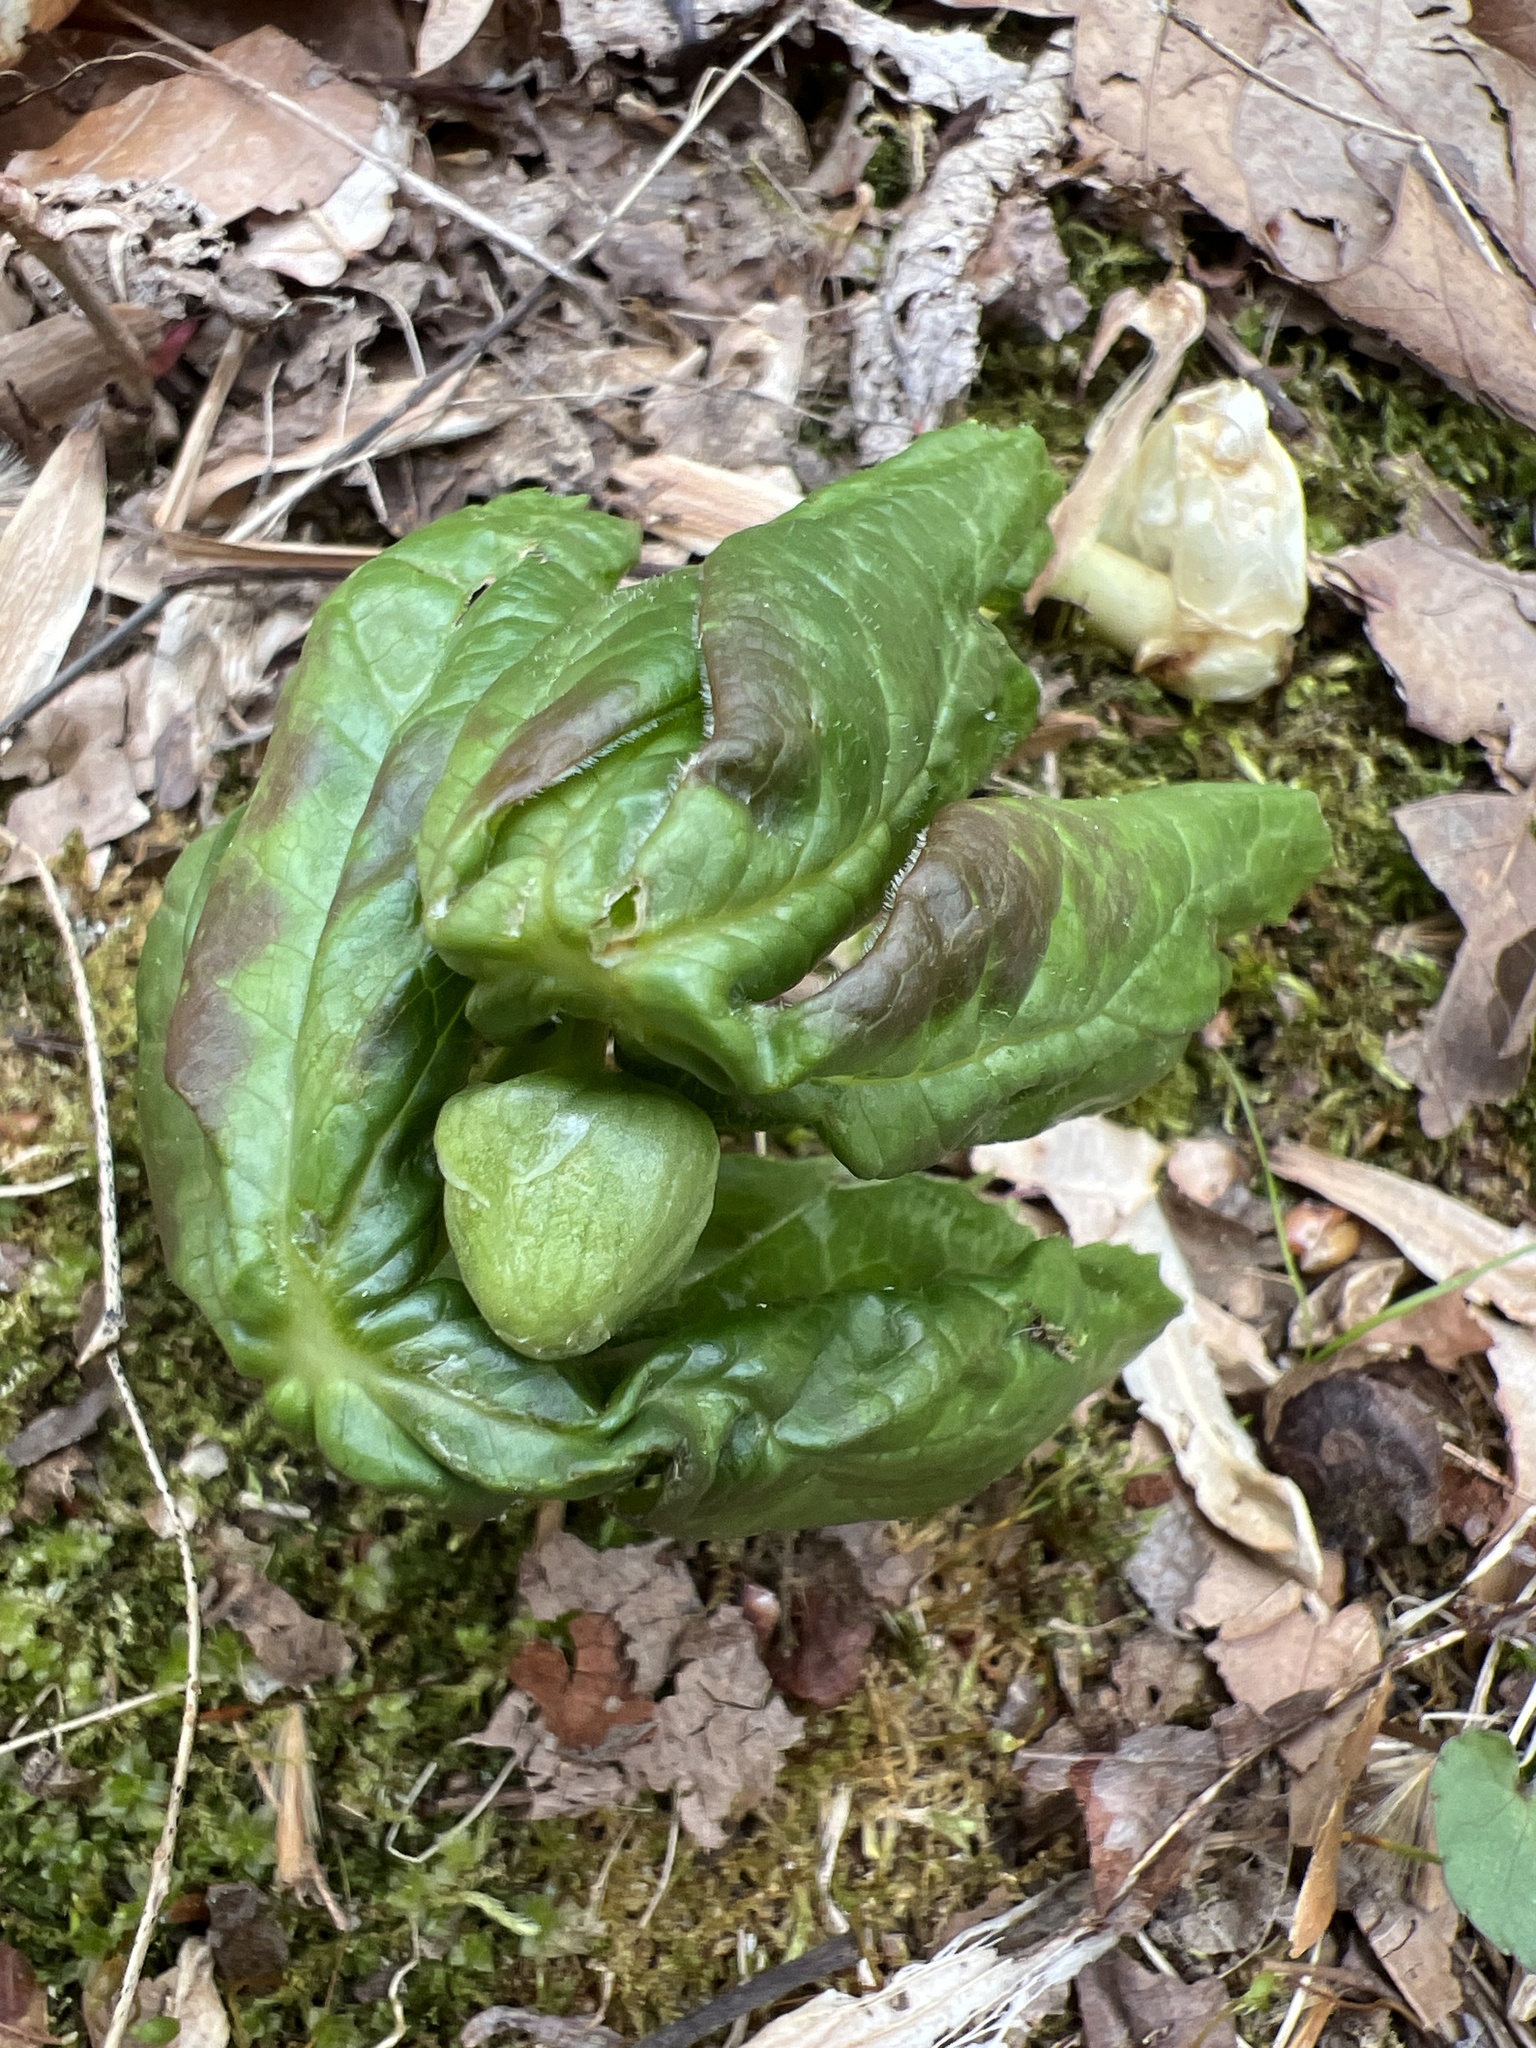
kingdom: Plantae
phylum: Tracheophyta
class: Magnoliopsida
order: Ranunculales
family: Berberidaceae
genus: Podophyllum
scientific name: Podophyllum peltatum
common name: Wild mandrake
